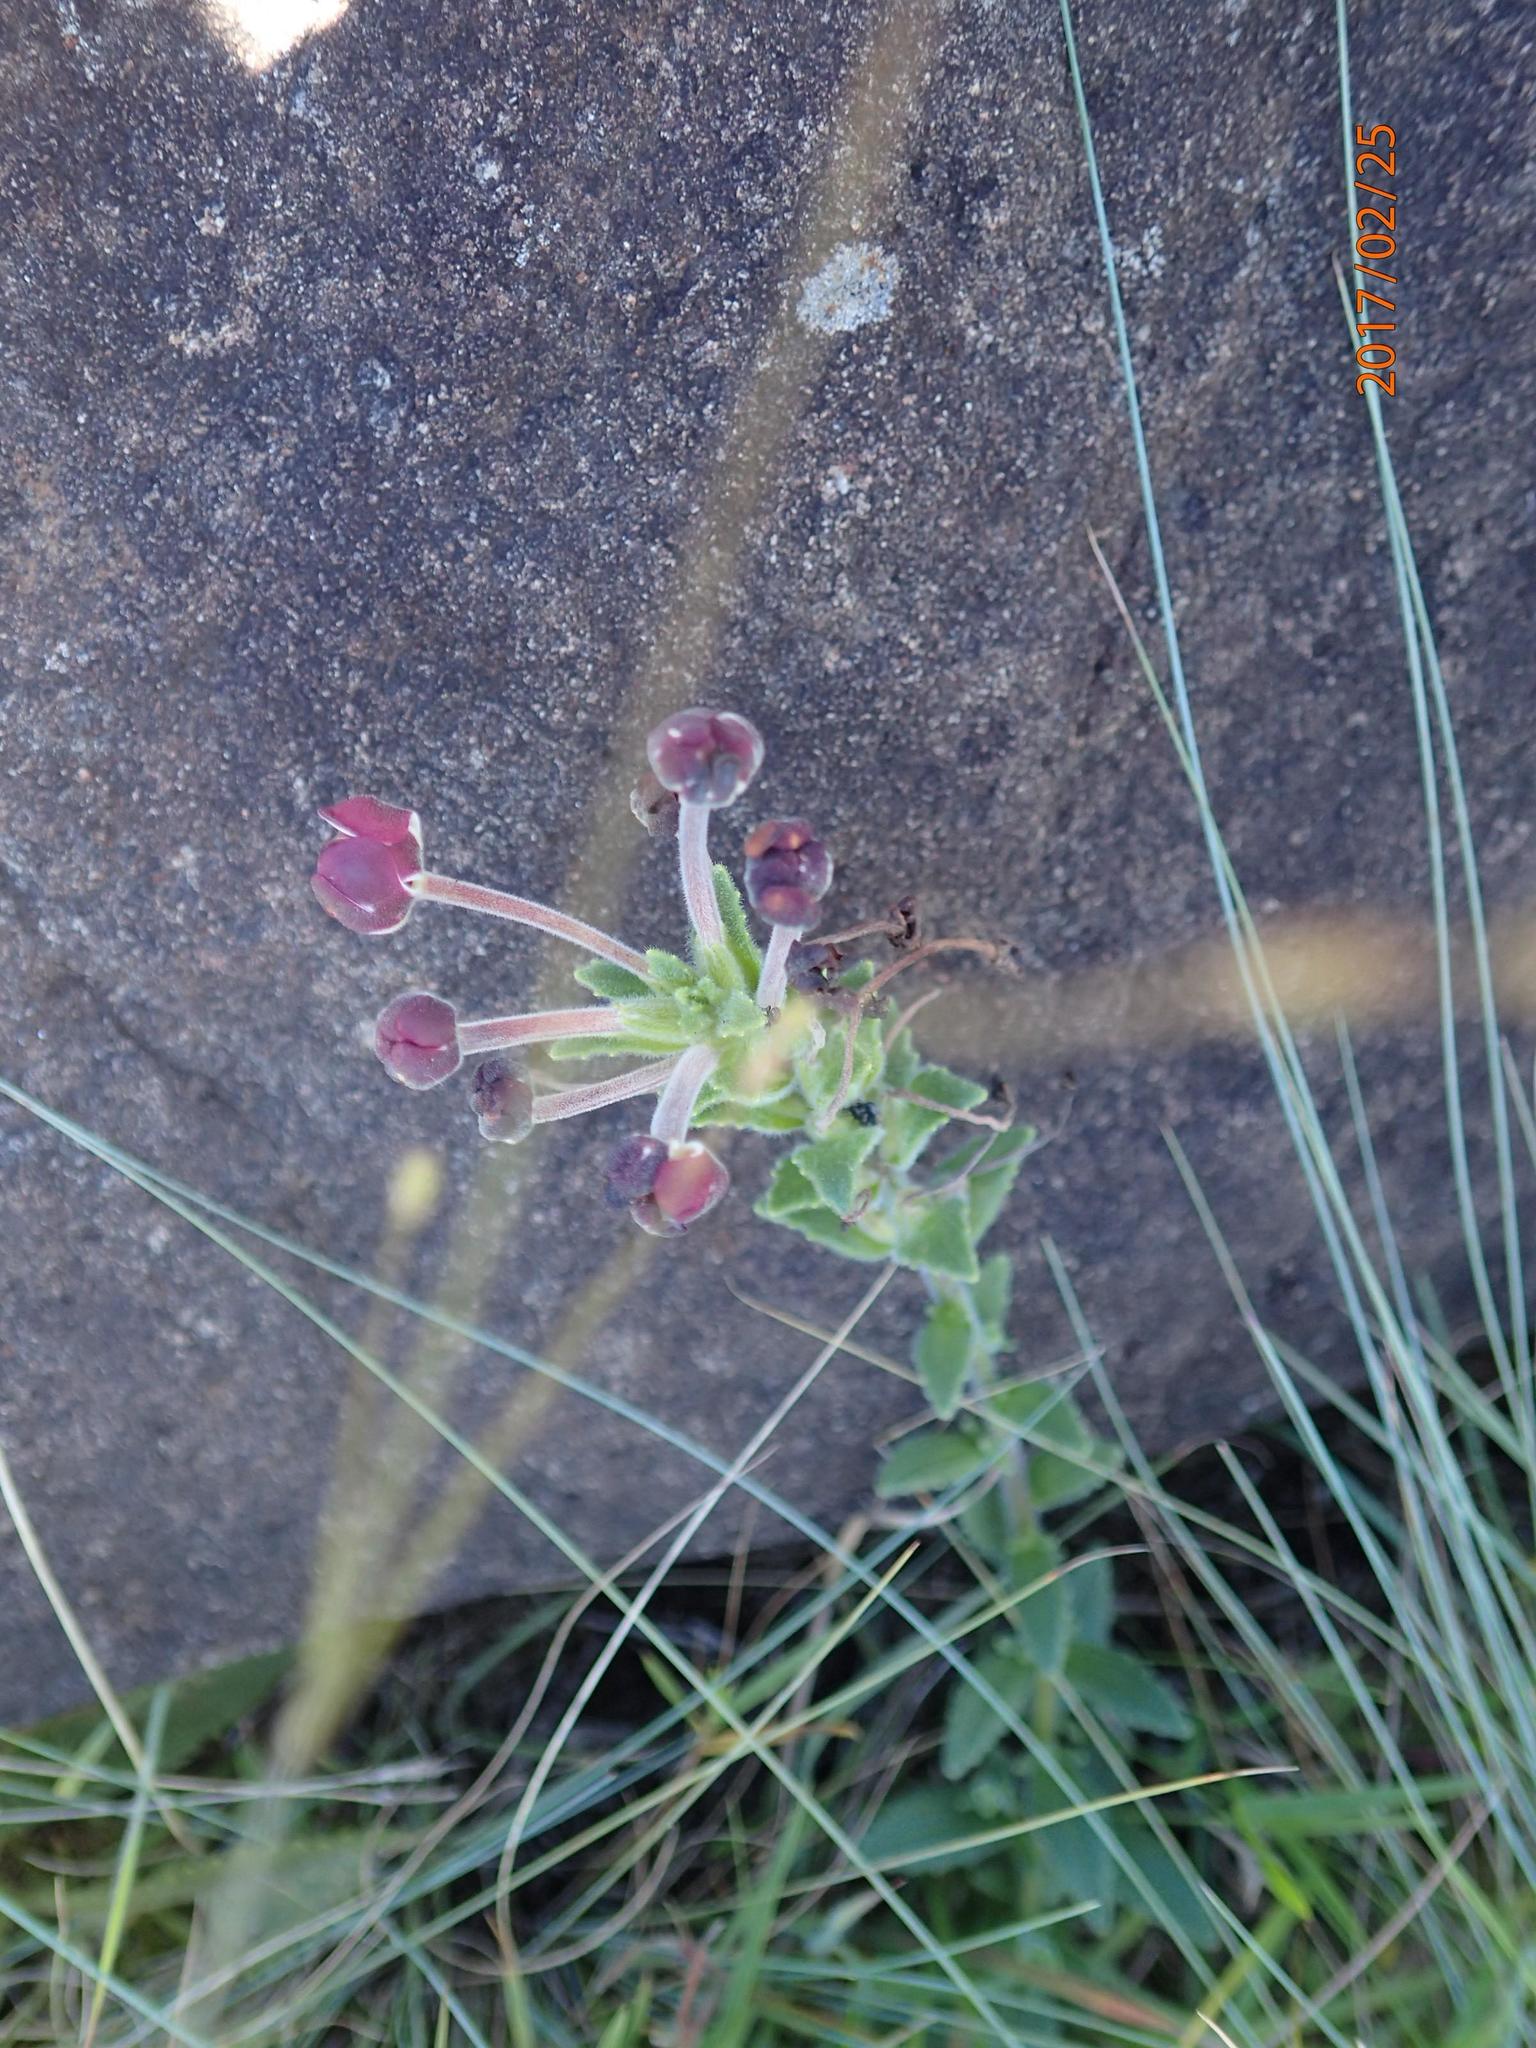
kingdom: Plantae
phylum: Tracheophyta
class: Magnoliopsida
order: Lamiales
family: Scrophulariaceae
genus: Zaluzianskya
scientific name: Zaluzianskya distans
